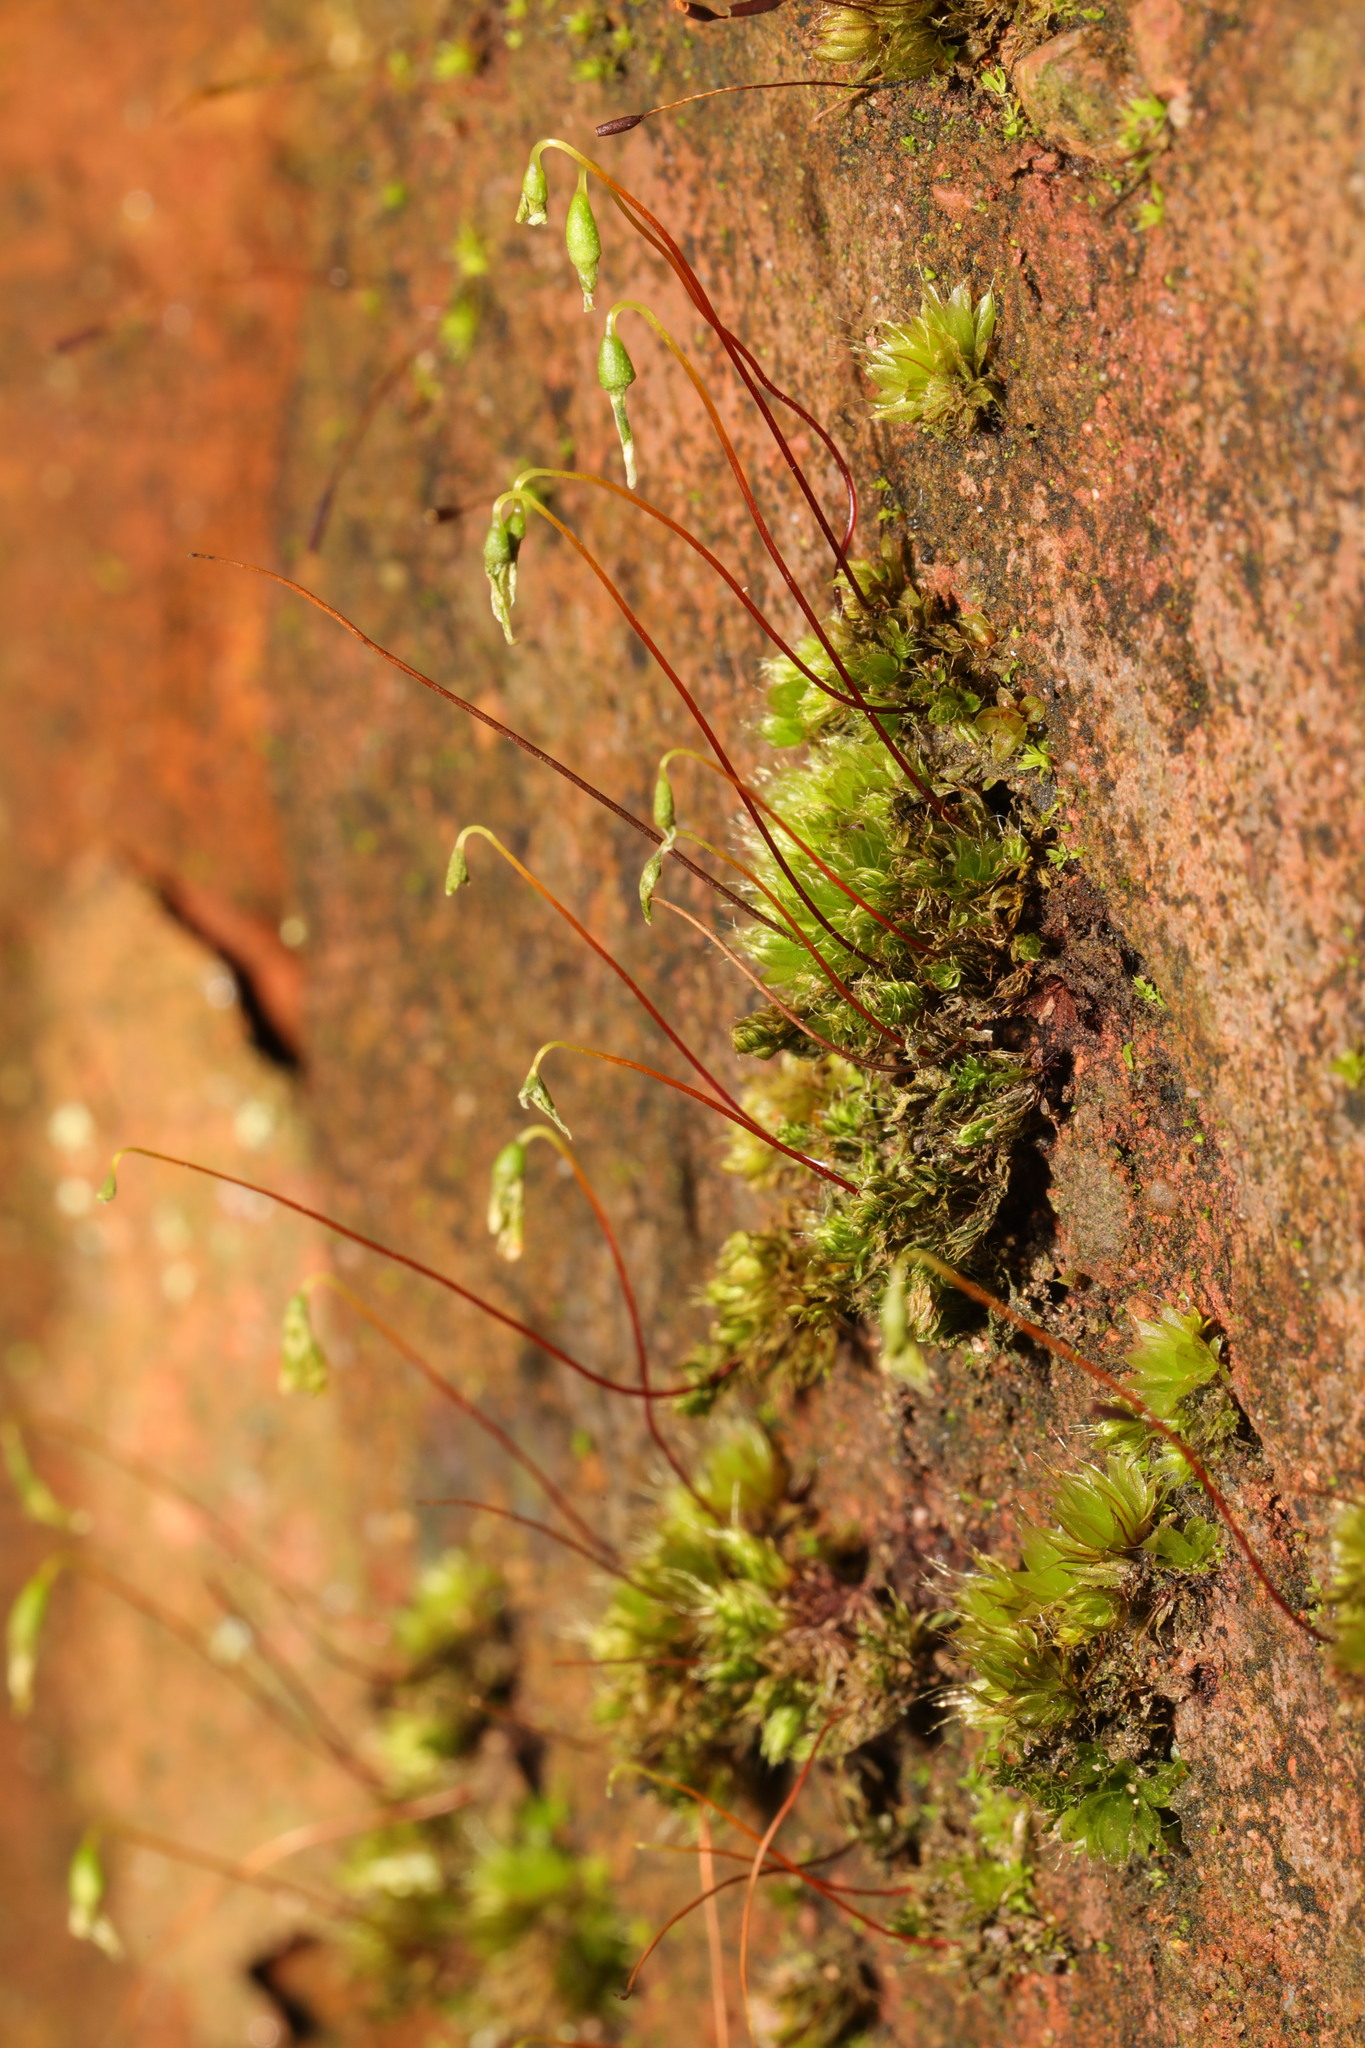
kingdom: Plantae
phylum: Bryophyta
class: Bryopsida
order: Bryales
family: Bryaceae
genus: Rosulabryum
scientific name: Rosulabryum capillare
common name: Capillary thread-moss
